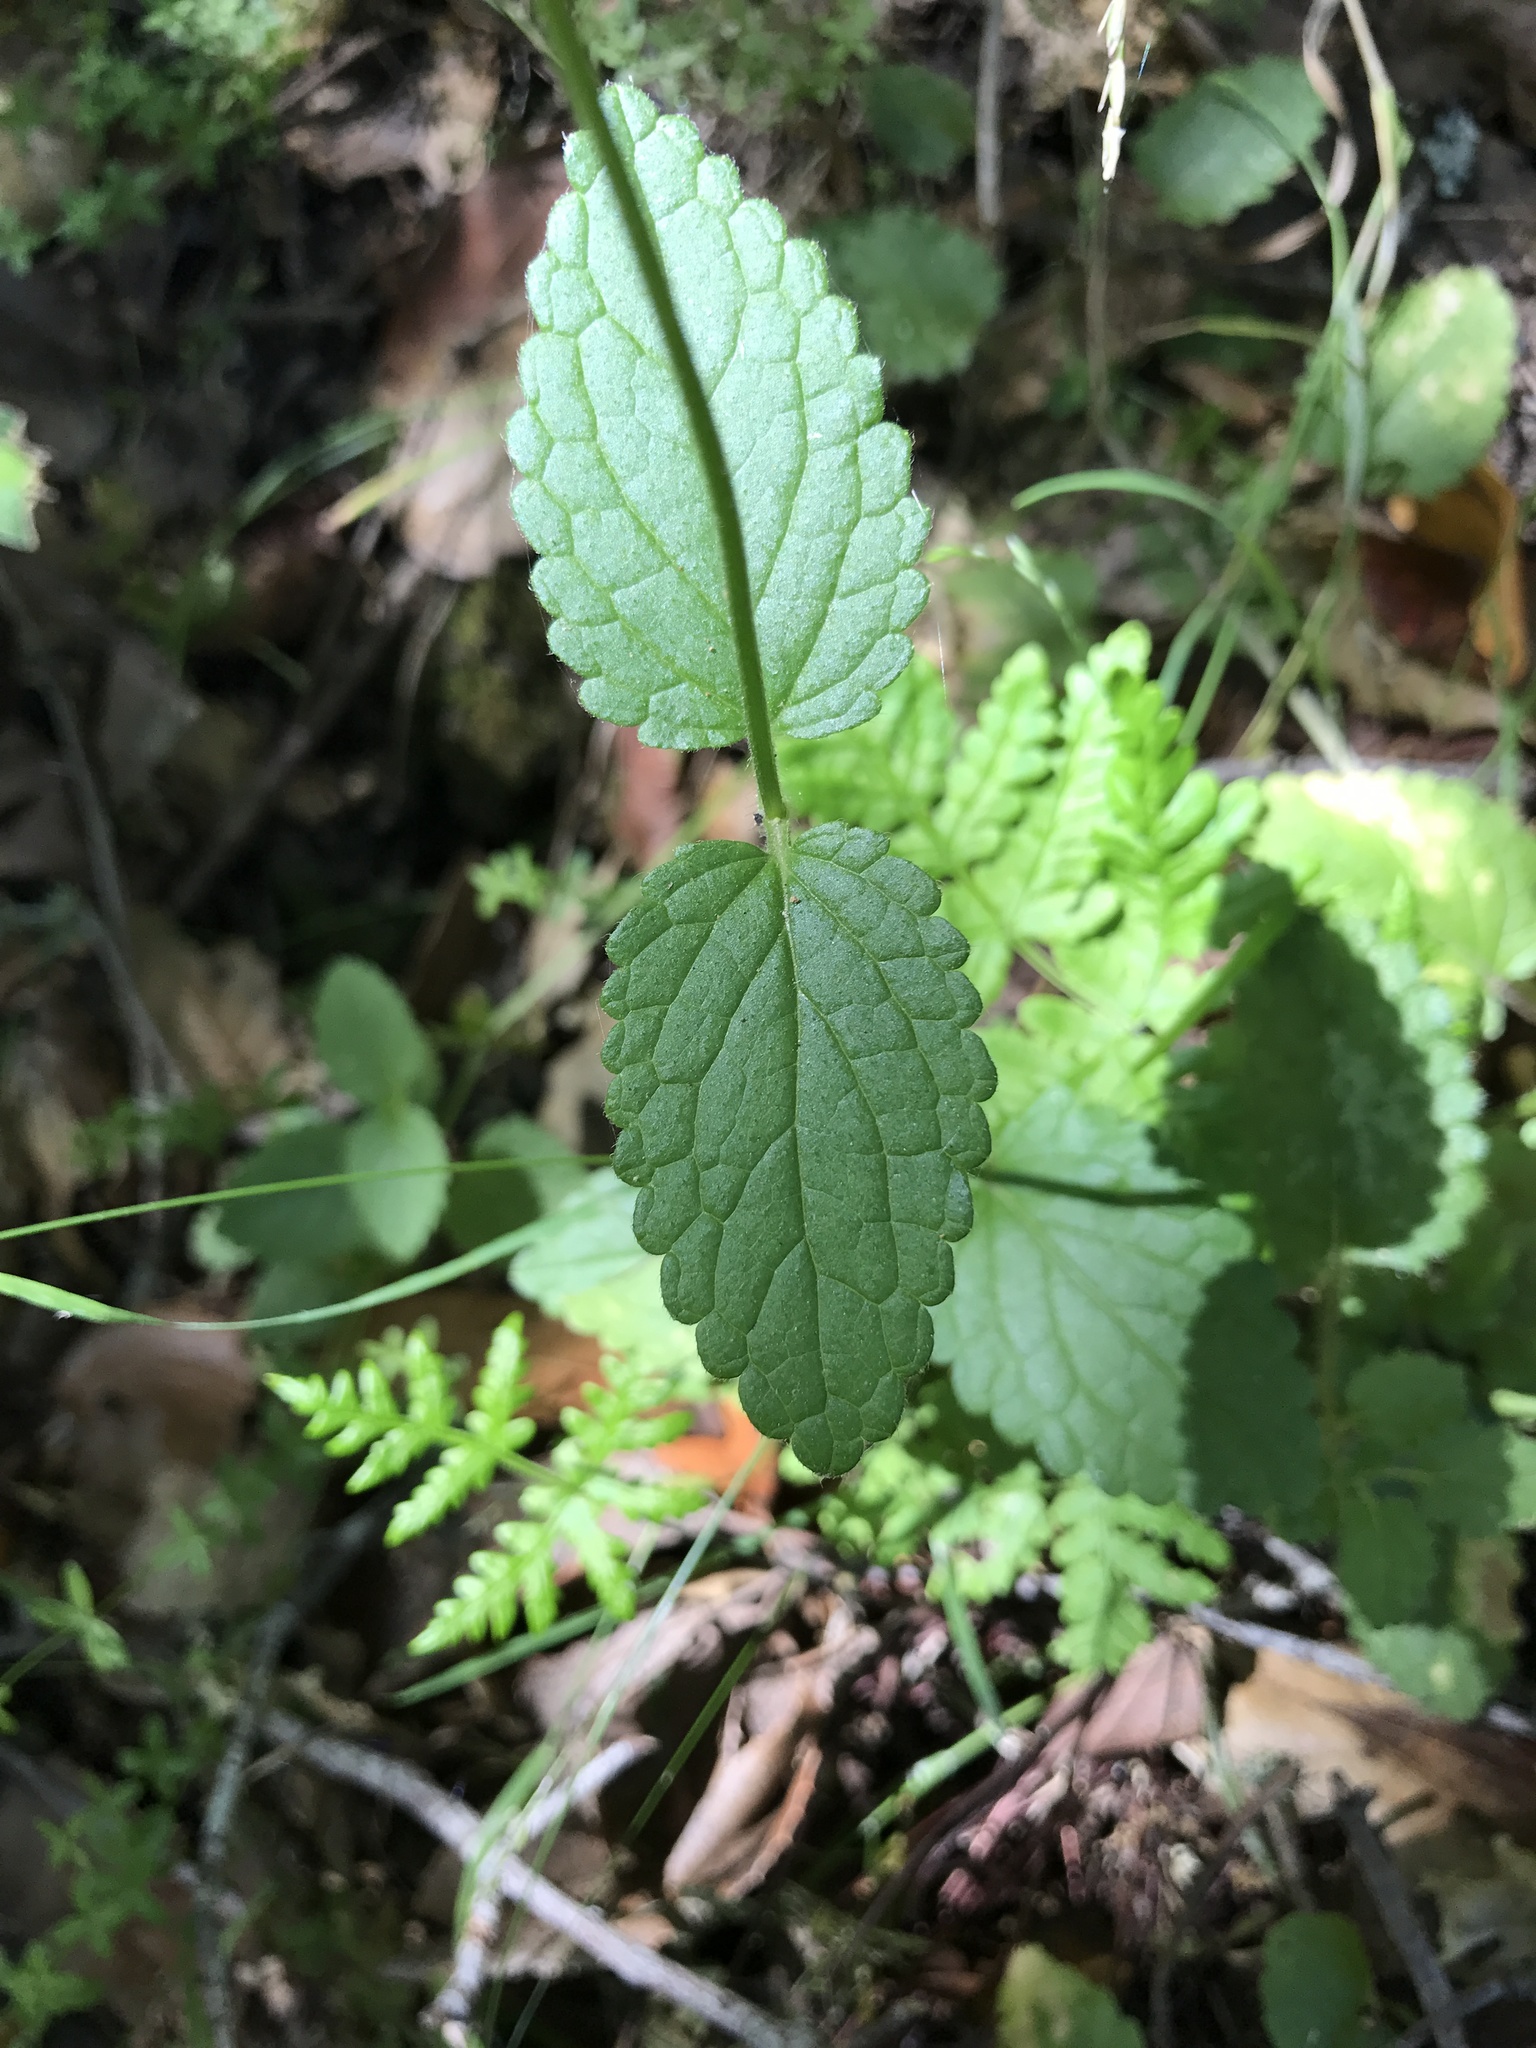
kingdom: Plantae
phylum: Tracheophyta
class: Magnoliopsida
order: Lamiales
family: Lamiaceae
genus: Stachys
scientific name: Stachys rigida
